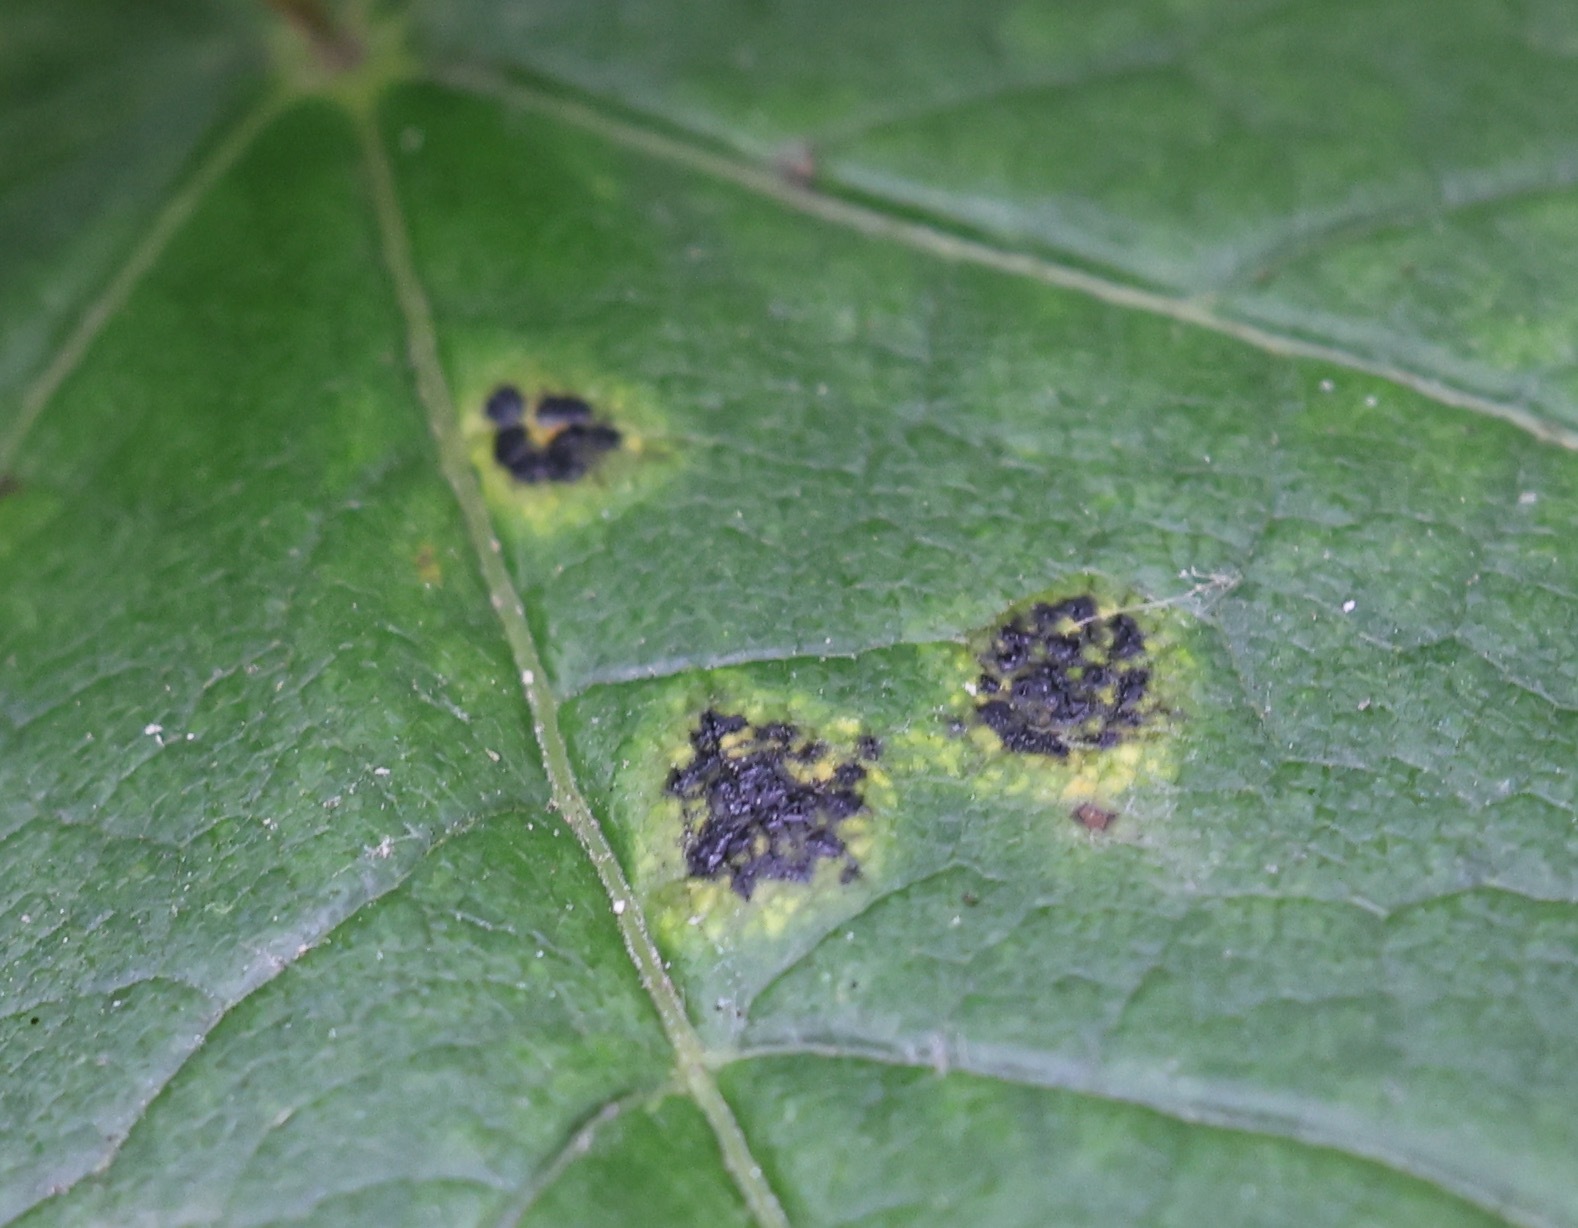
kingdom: Fungi
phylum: Ascomycota
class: Leotiomycetes
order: Rhytismatales
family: Rhytismataceae
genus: Rhytisma
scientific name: Rhytisma acerinum
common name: European tar spot
